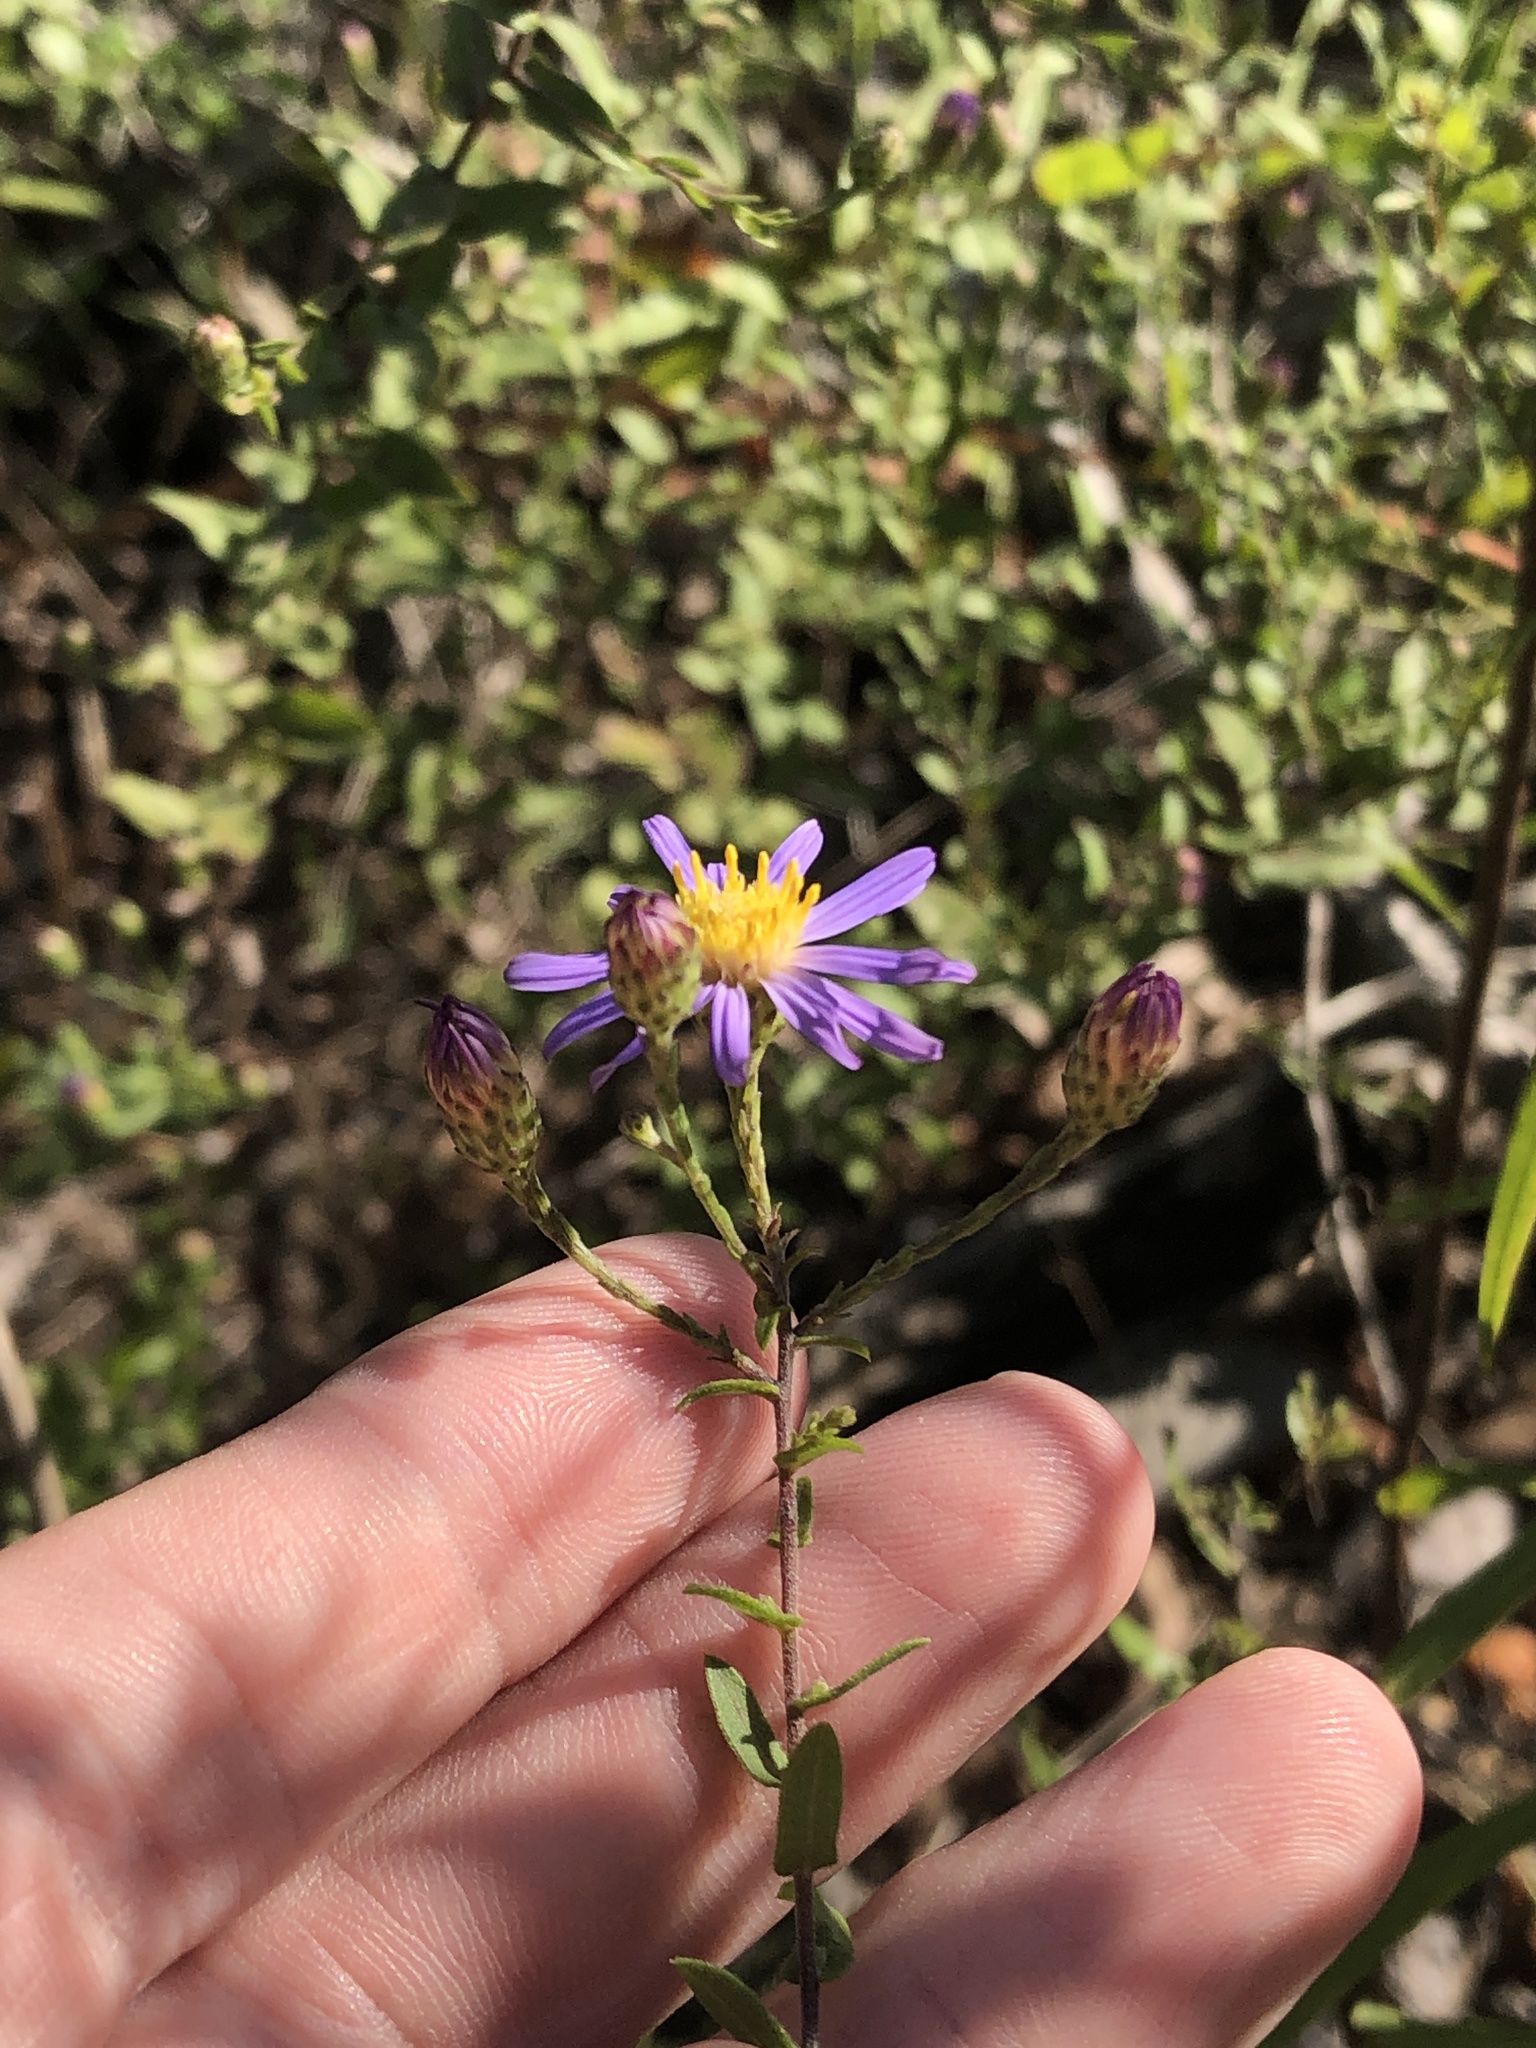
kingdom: Plantae
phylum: Tracheophyta
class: Magnoliopsida
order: Asterales
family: Asteraceae
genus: Symphyotrichum
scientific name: Symphyotrichum patens
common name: Late purple aster
